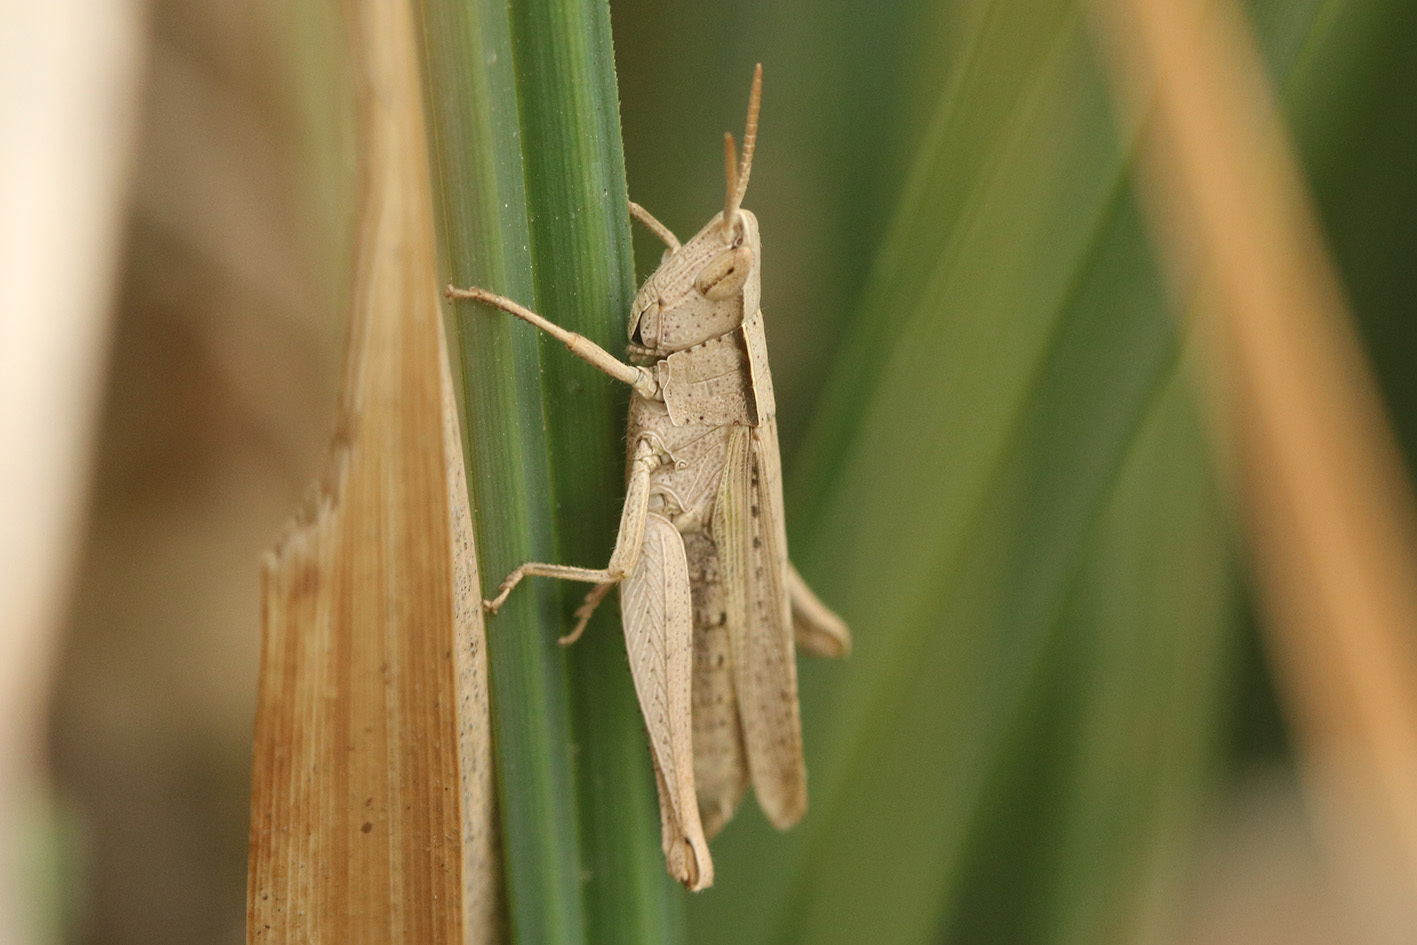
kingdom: Animalia
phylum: Arthropoda
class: Insecta
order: Orthoptera
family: Acrididae
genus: Laplatacris
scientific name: Laplatacris dispar
